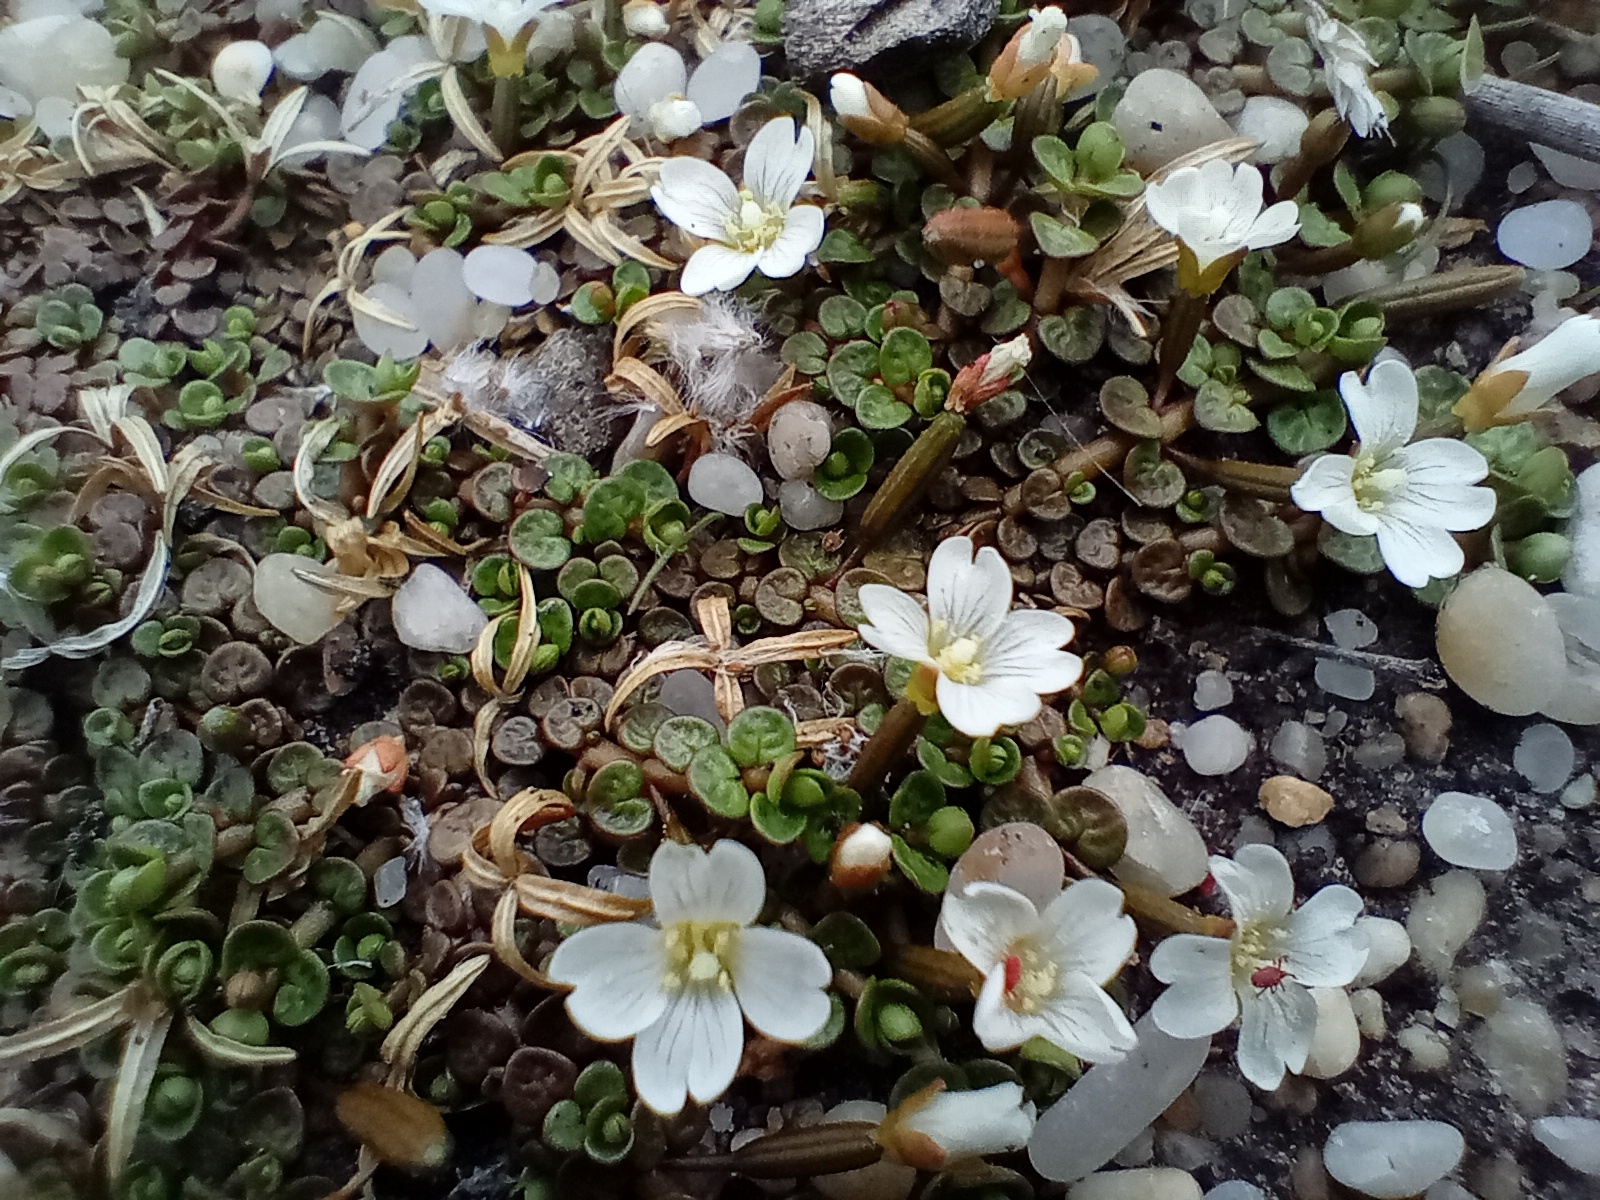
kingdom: Plantae
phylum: Tracheophyta
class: Magnoliopsida
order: Myrtales
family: Onagraceae
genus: Epilobium
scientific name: Epilobium komarovianum
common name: Bronzy willowherb
